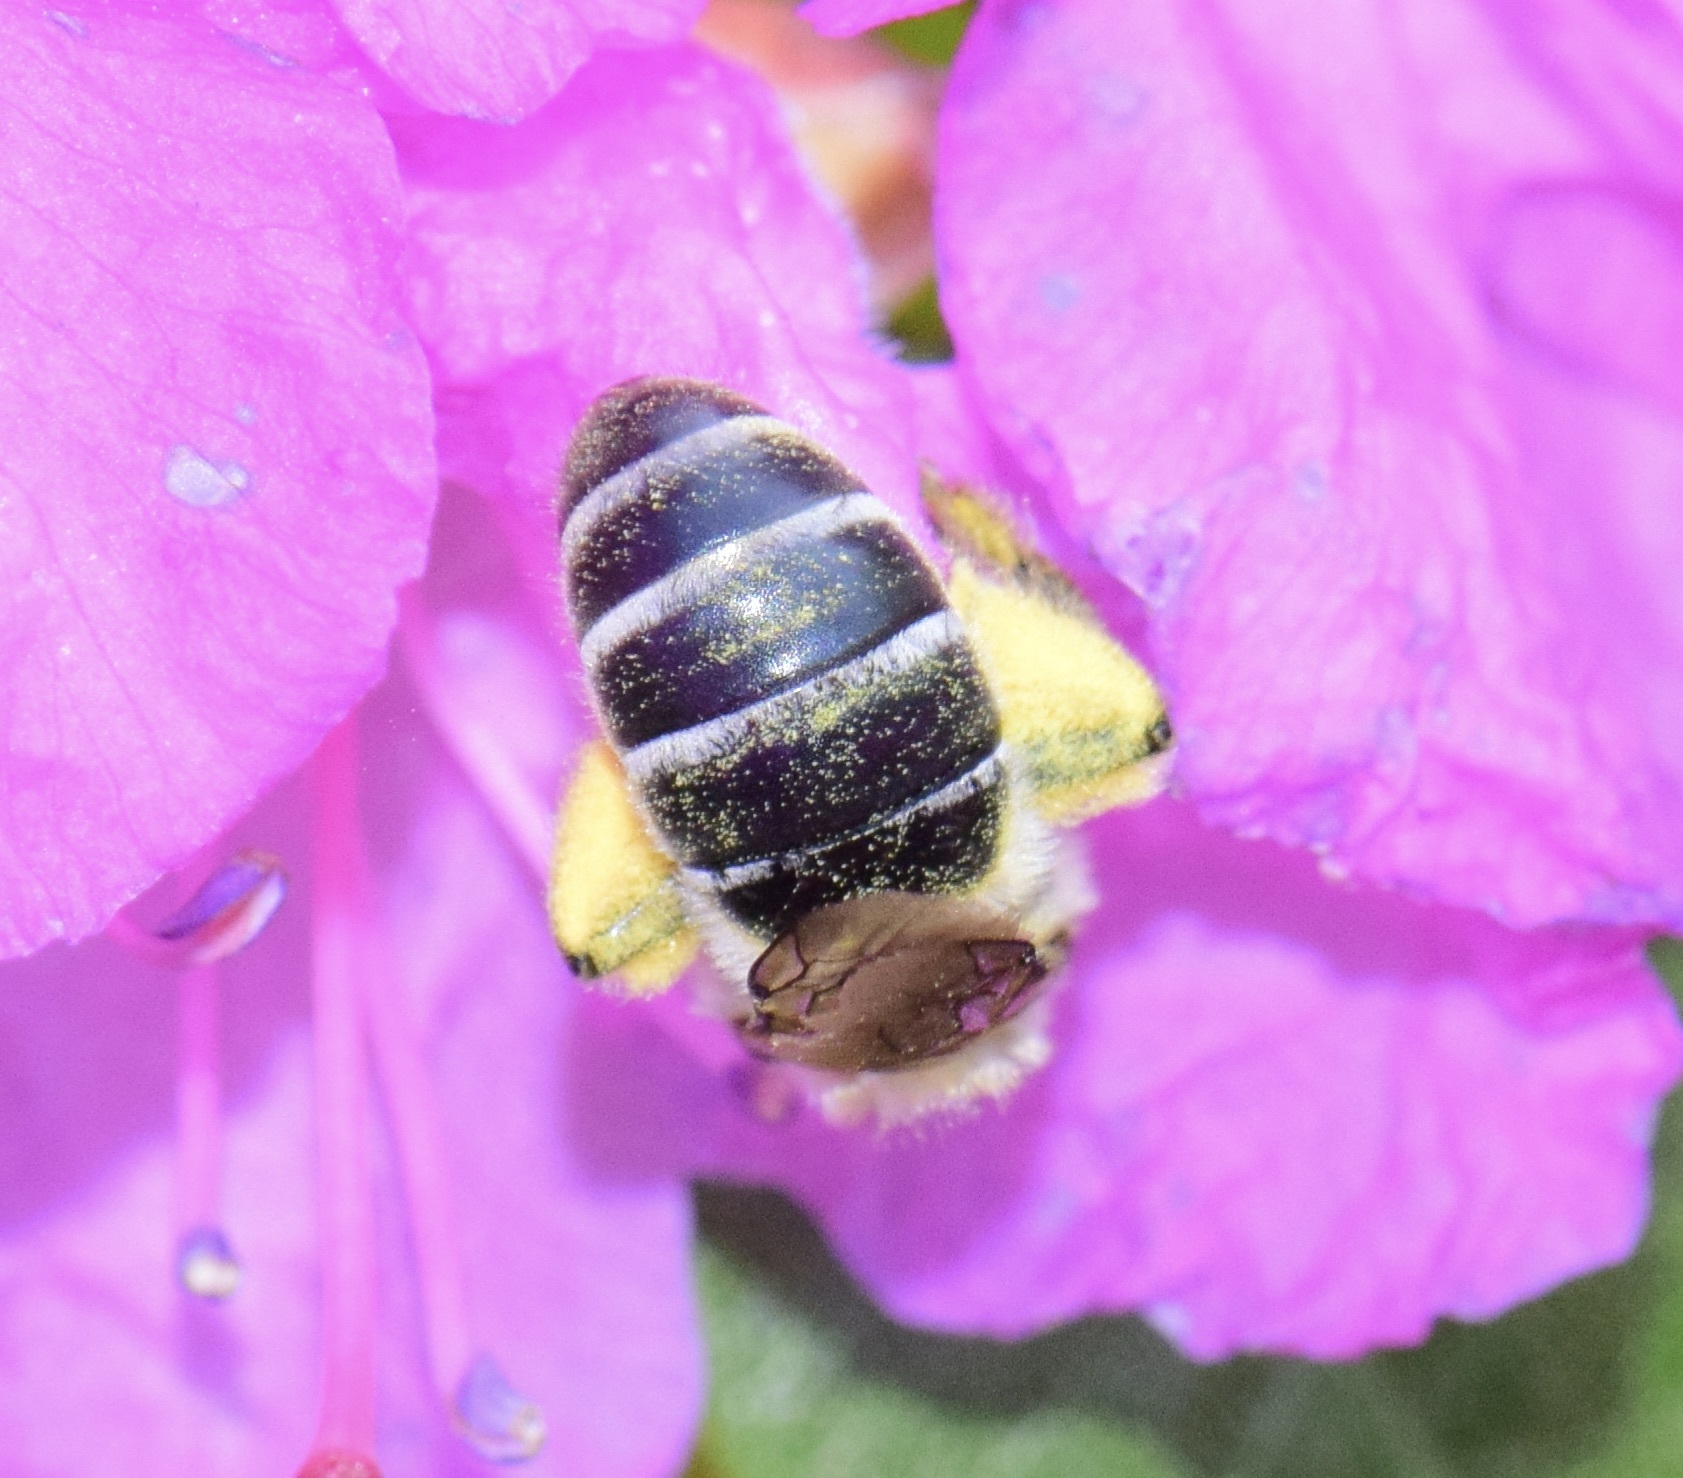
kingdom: Animalia
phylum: Arthropoda
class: Insecta
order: Hymenoptera
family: Colletidae
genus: Colletes
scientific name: Colletes inaequalis
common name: Unequal cellophane bee
